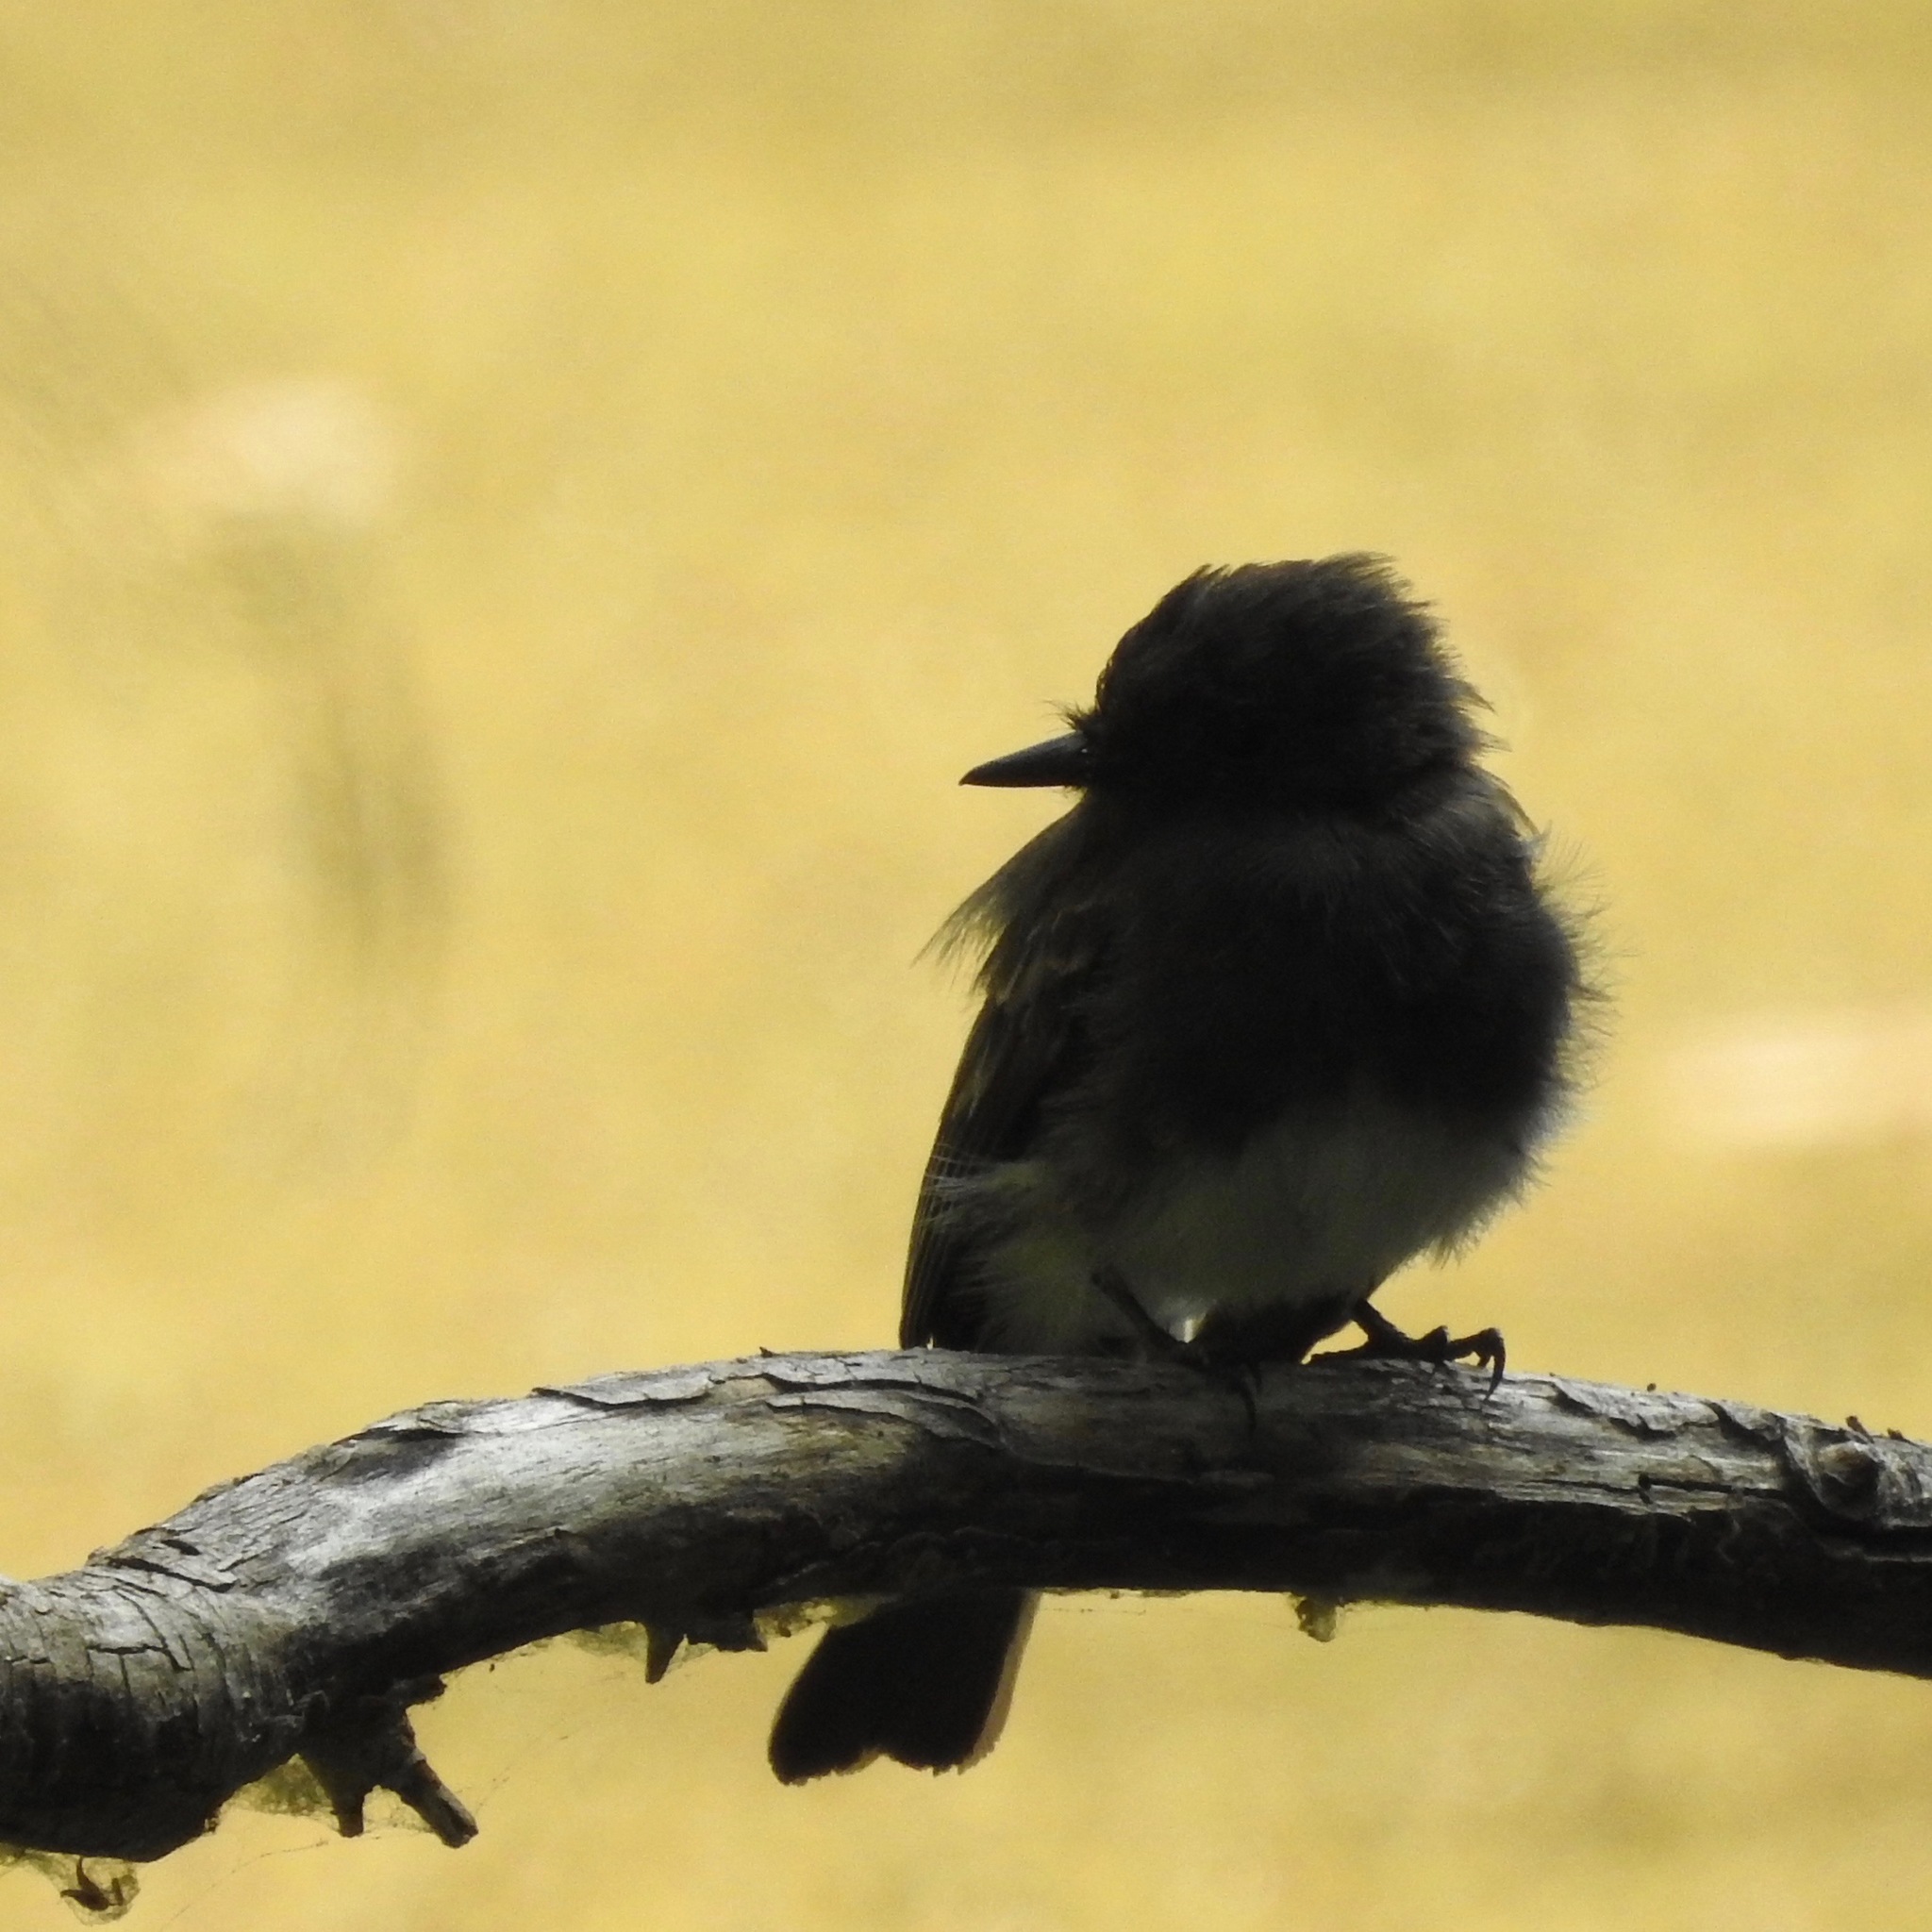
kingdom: Animalia
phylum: Chordata
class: Aves
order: Passeriformes
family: Tyrannidae
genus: Sayornis
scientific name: Sayornis nigricans
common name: Black phoebe
